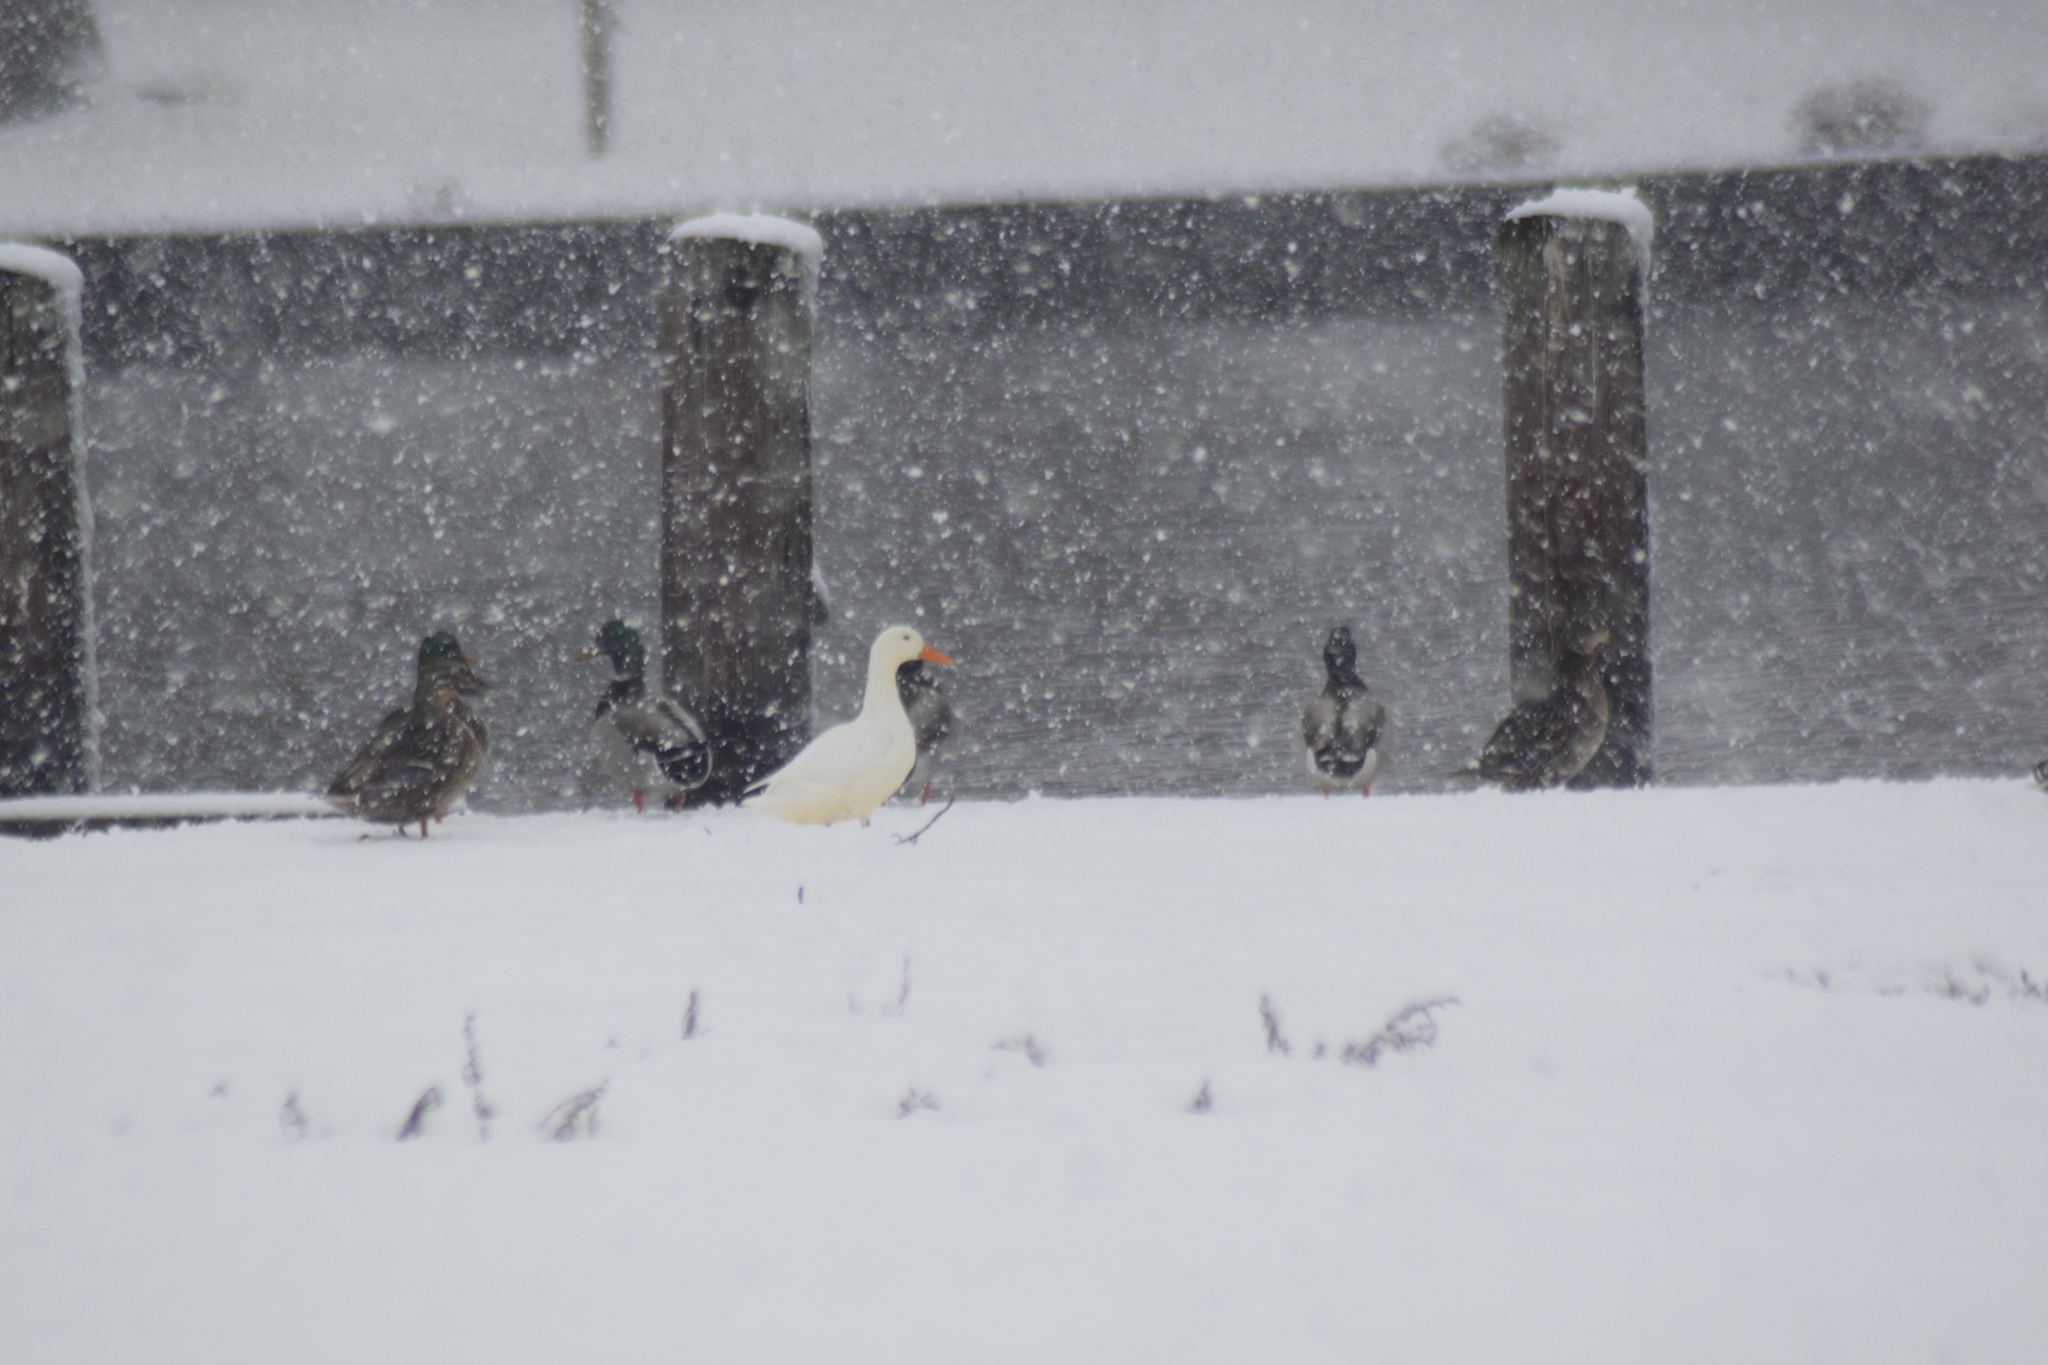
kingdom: Animalia
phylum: Chordata
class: Aves
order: Anseriformes
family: Anatidae
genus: Anas
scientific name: Anas platyrhynchos
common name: Mallard
